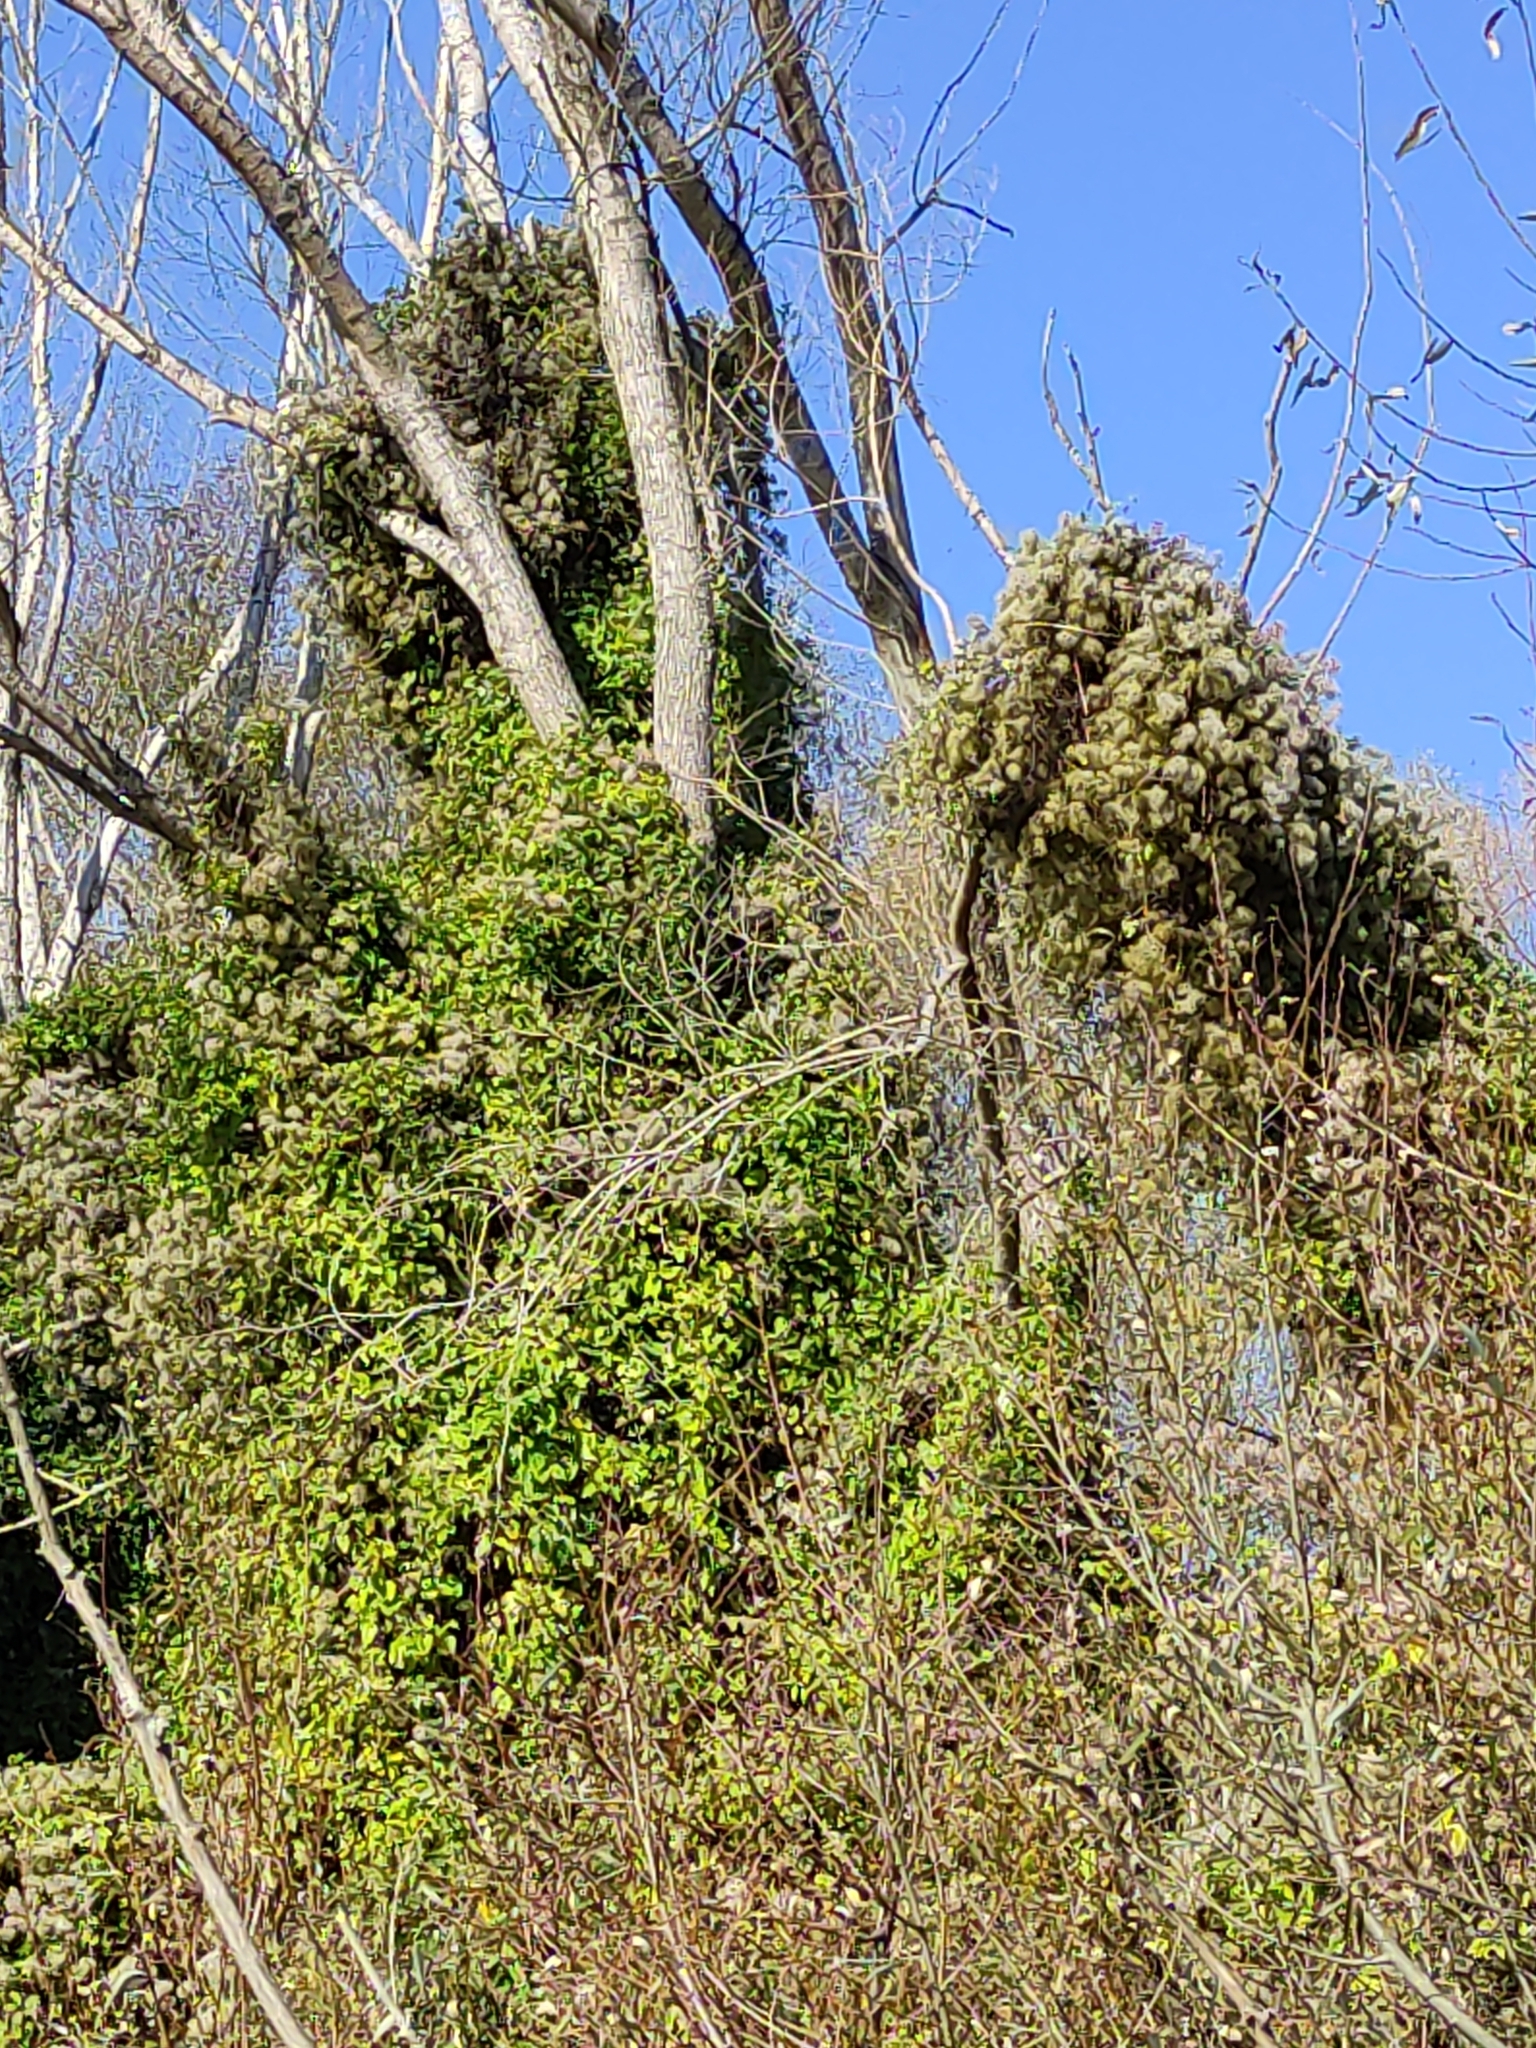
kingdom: Plantae
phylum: Tracheophyta
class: Magnoliopsida
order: Ranunculales
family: Ranunculaceae
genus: Clematis
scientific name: Clematis vitalba
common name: Evergreen clematis
